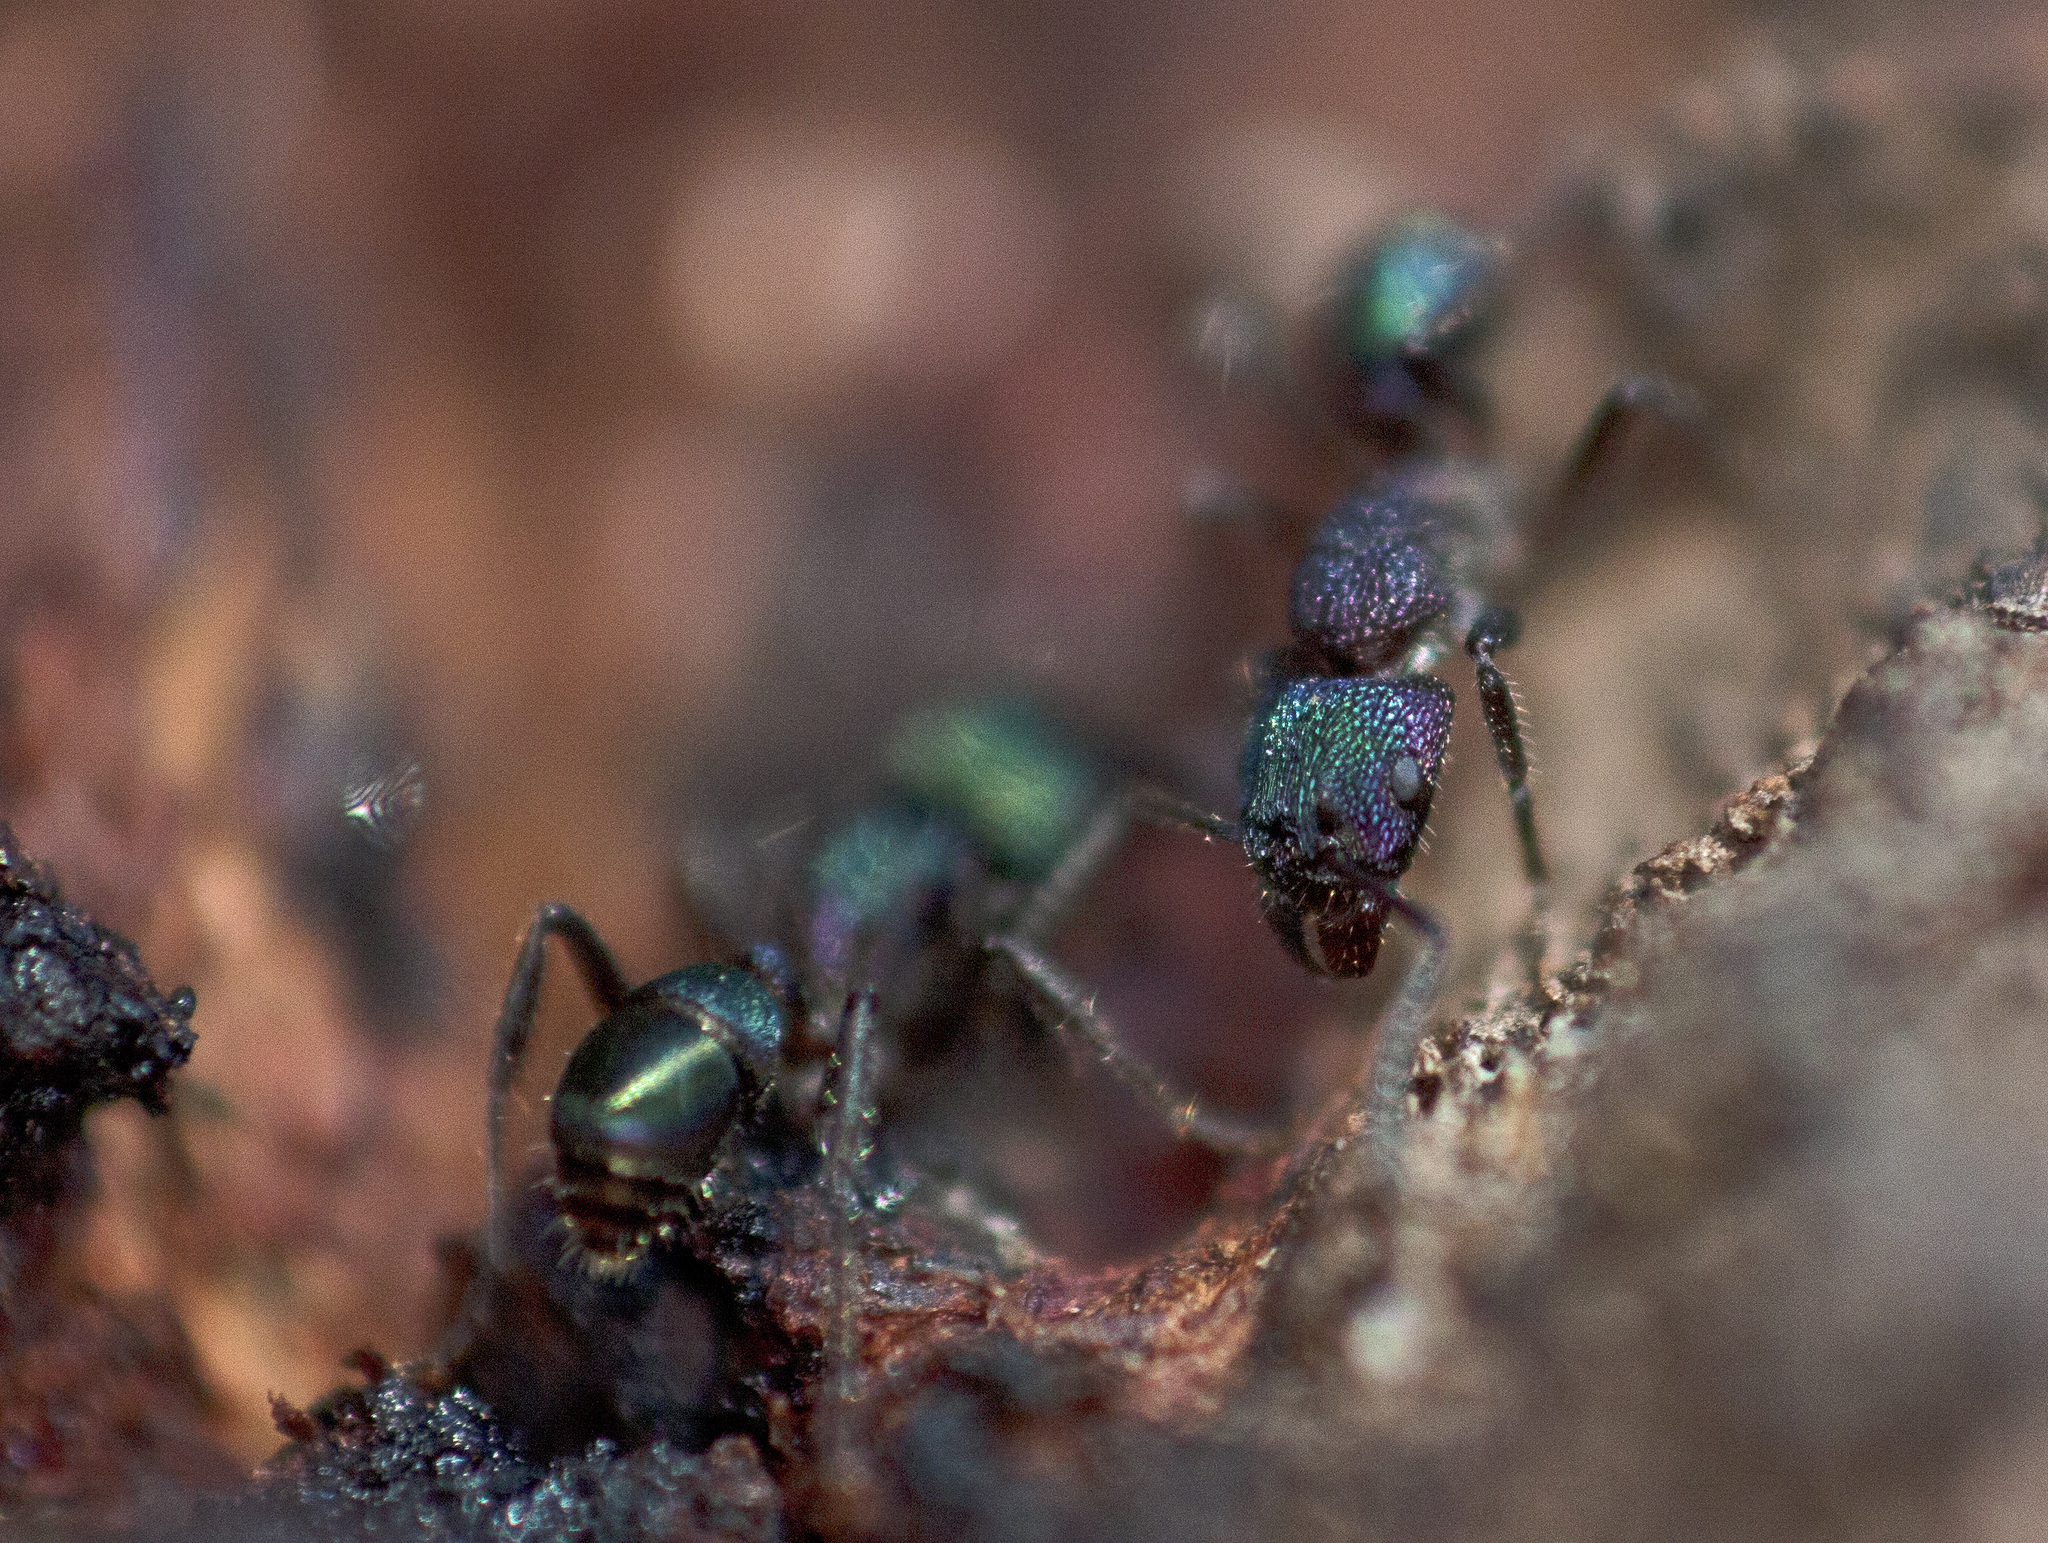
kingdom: Animalia
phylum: Arthropoda
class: Insecta
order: Hymenoptera
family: Formicidae
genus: Rhytidoponera
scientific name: Rhytidoponera metallica
